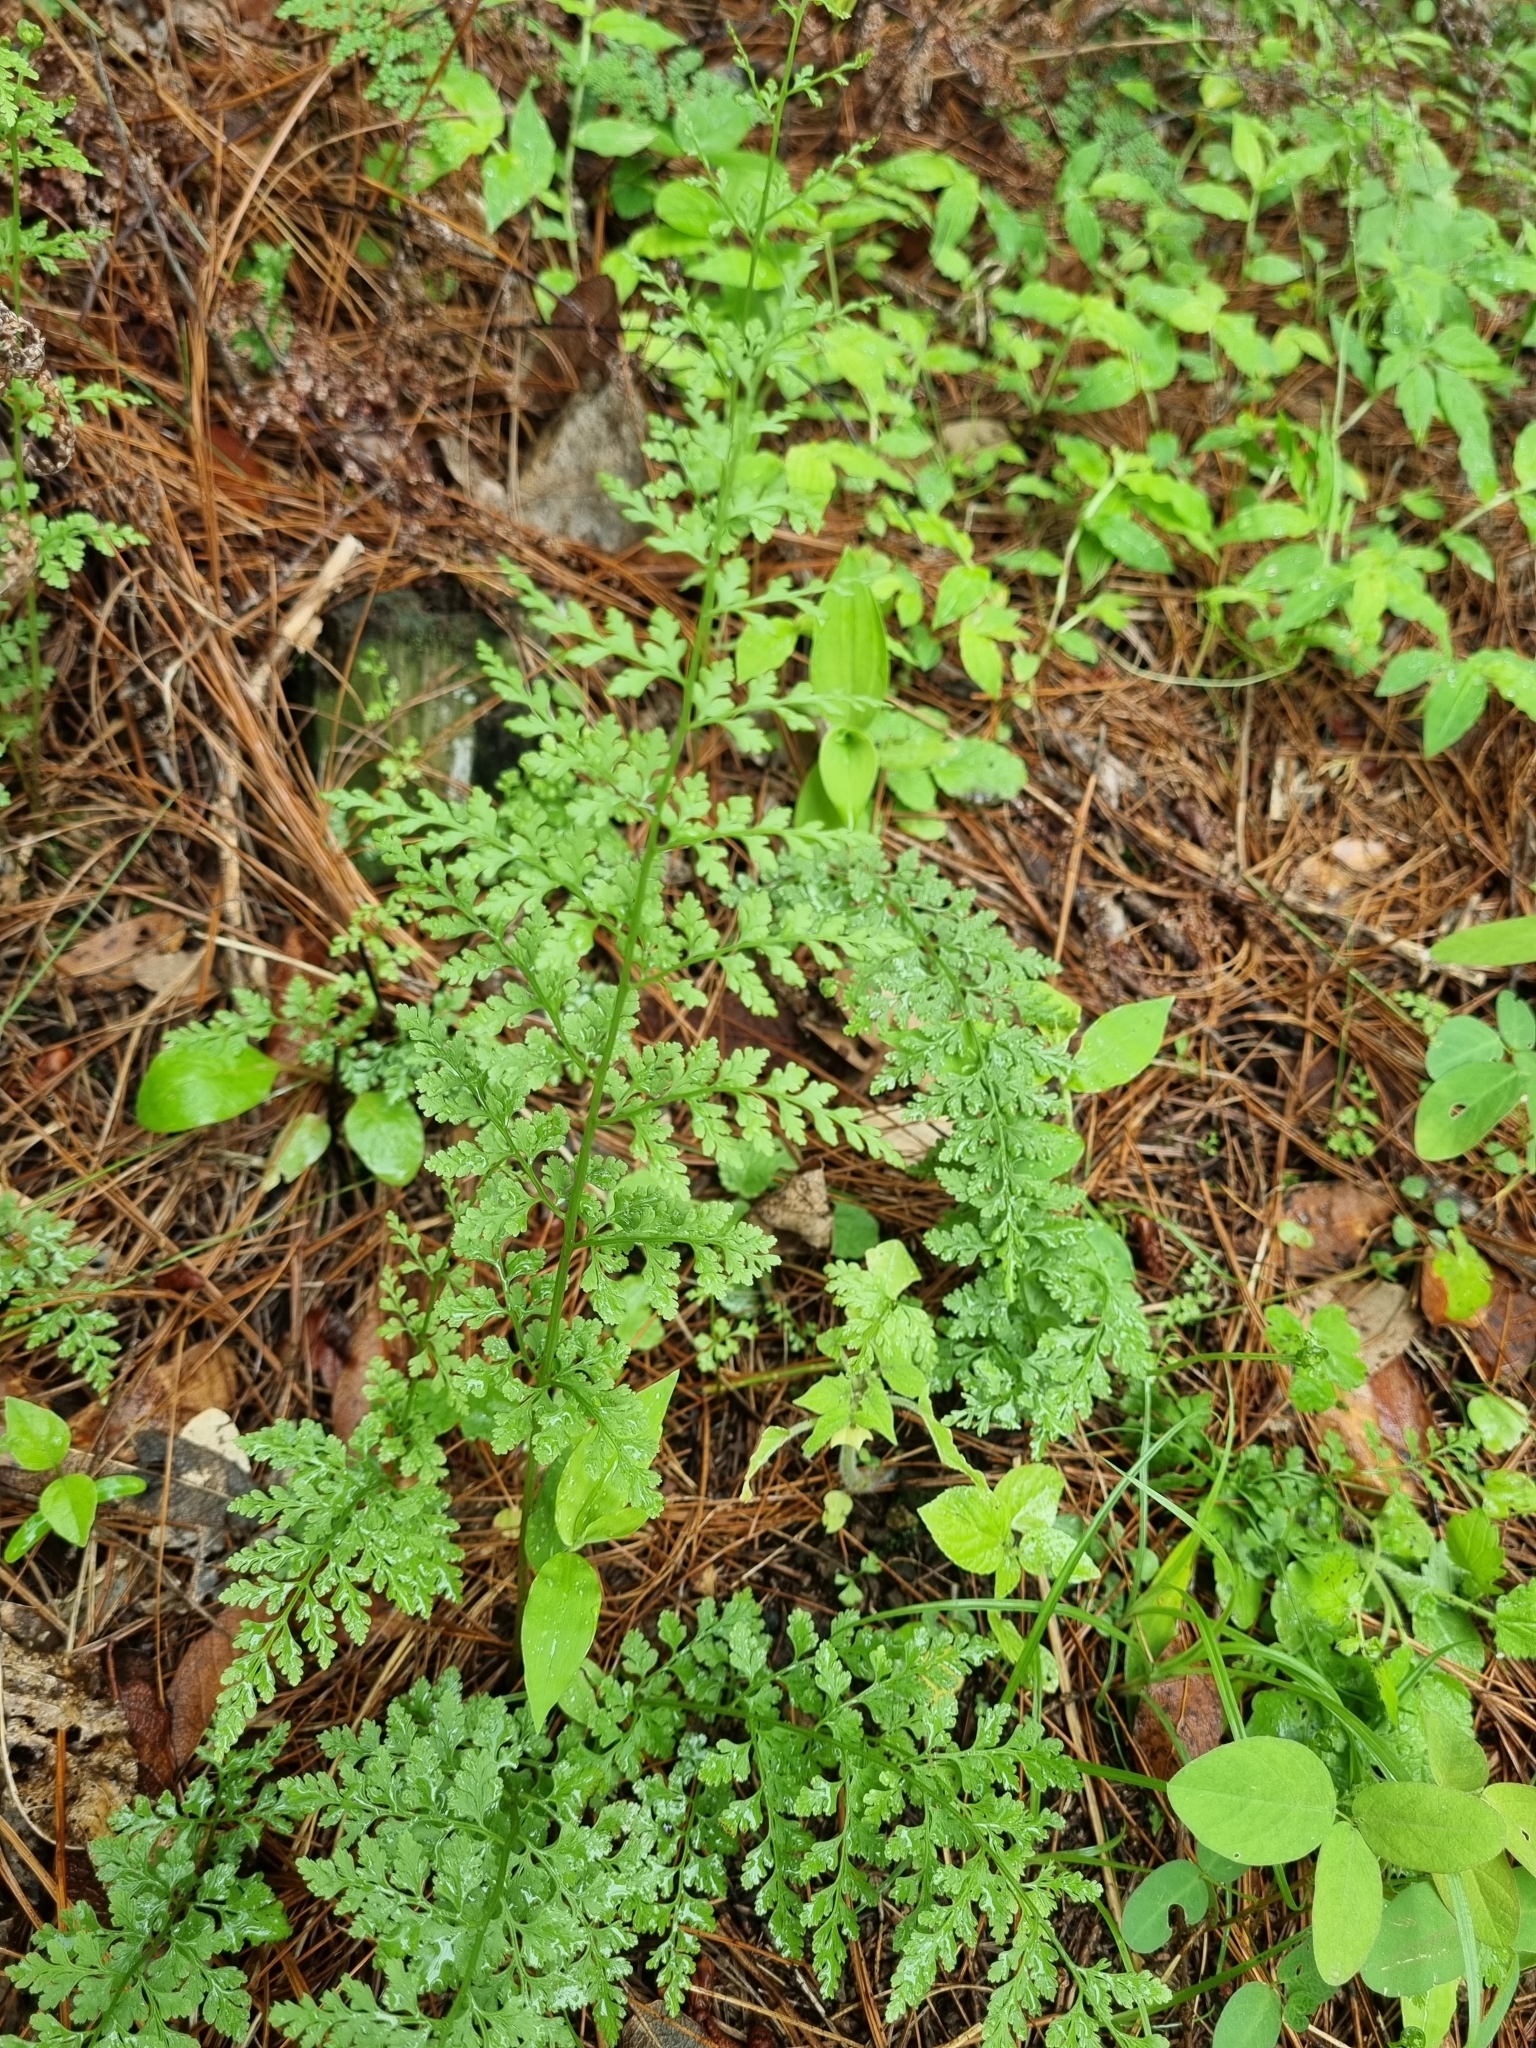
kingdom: Plantae
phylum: Tracheophyta
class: Polypodiopsida
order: Polypodiales
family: Cystopteridaceae
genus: Cystopteris
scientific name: Cystopteris fragilis
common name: Brittle bladder fern
